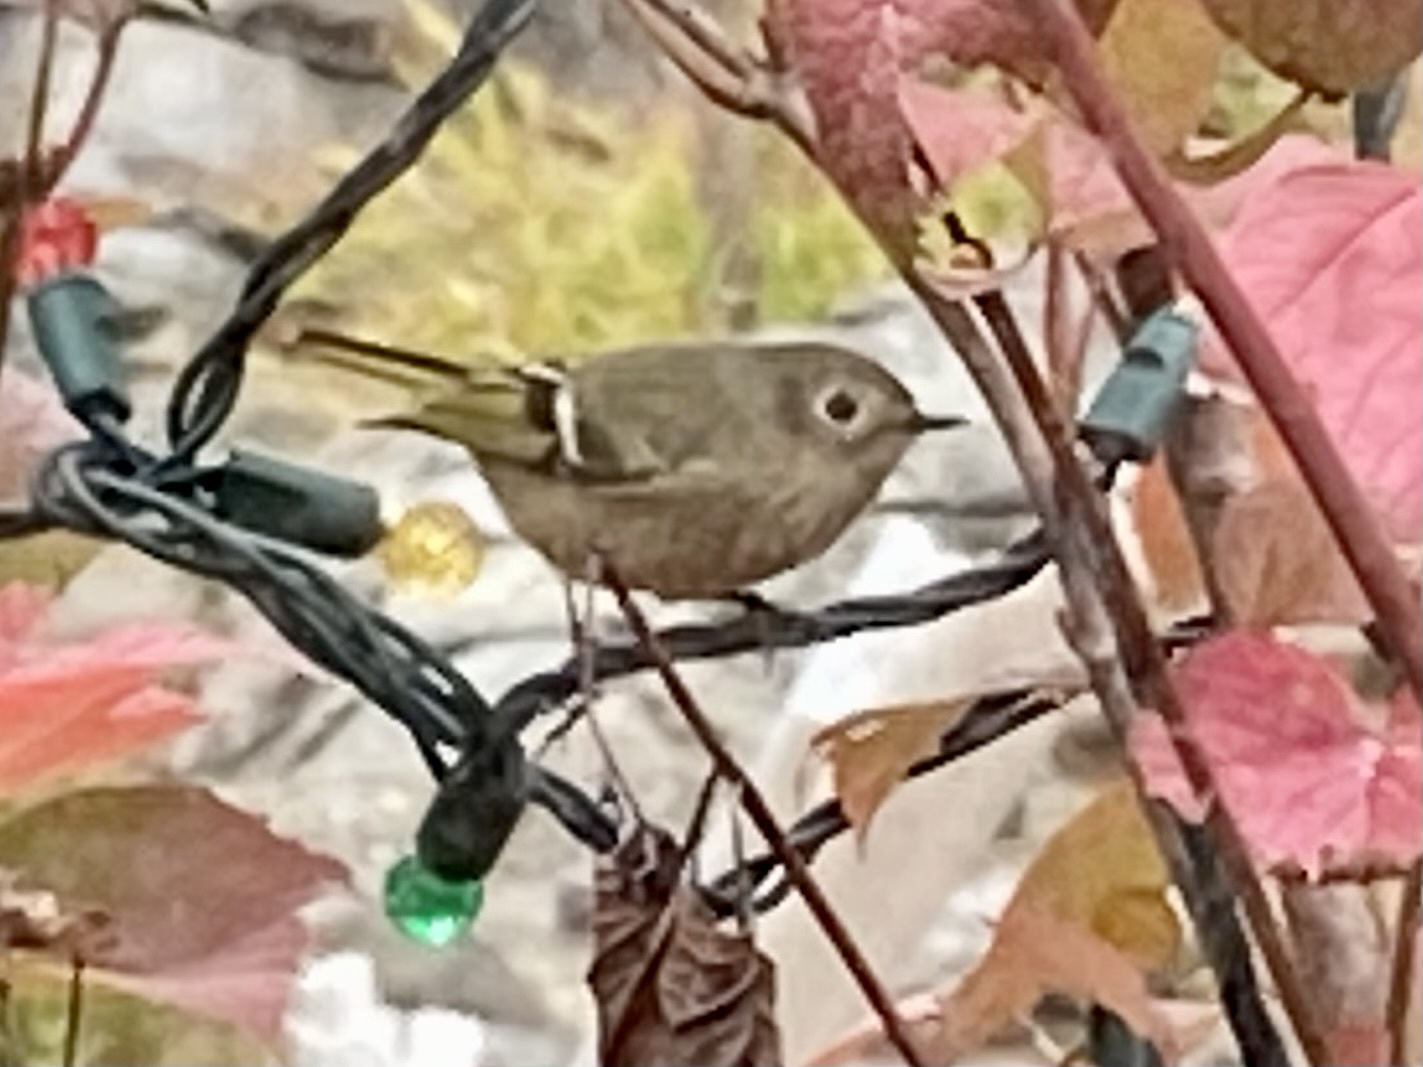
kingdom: Animalia
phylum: Chordata
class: Aves
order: Passeriformes
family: Regulidae
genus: Regulus
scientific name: Regulus calendula
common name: Ruby-crowned kinglet
